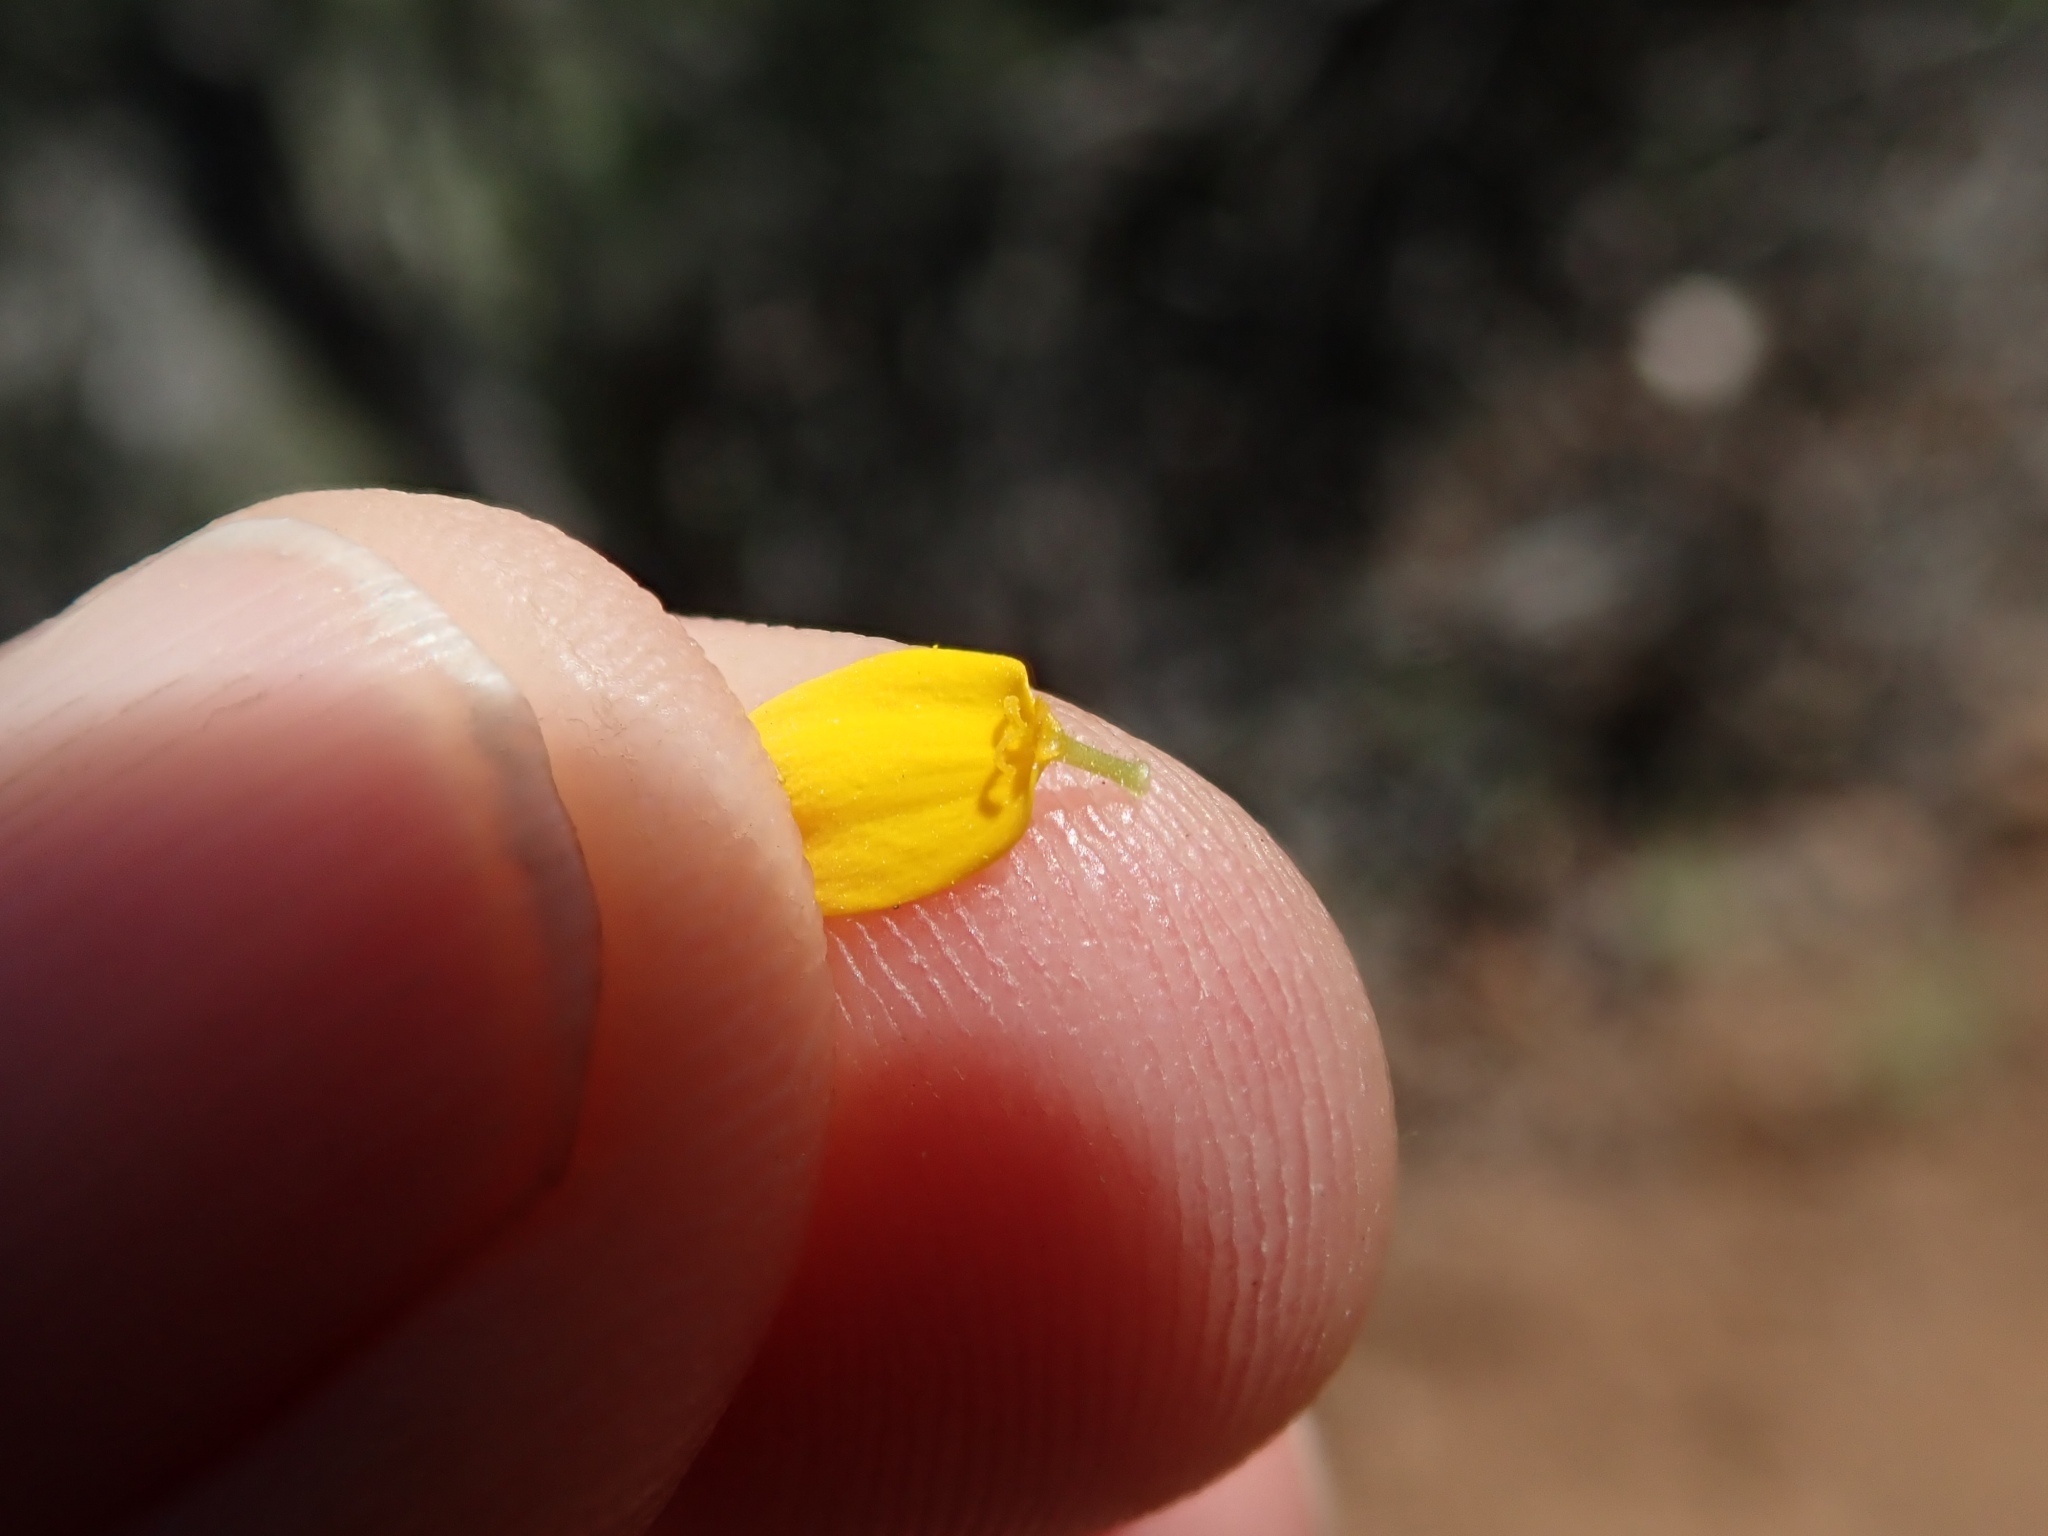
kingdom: Plantae
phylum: Tracheophyta
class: Magnoliopsida
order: Asterales
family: Asteraceae
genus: Monolopia
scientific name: Monolopia gracilens
